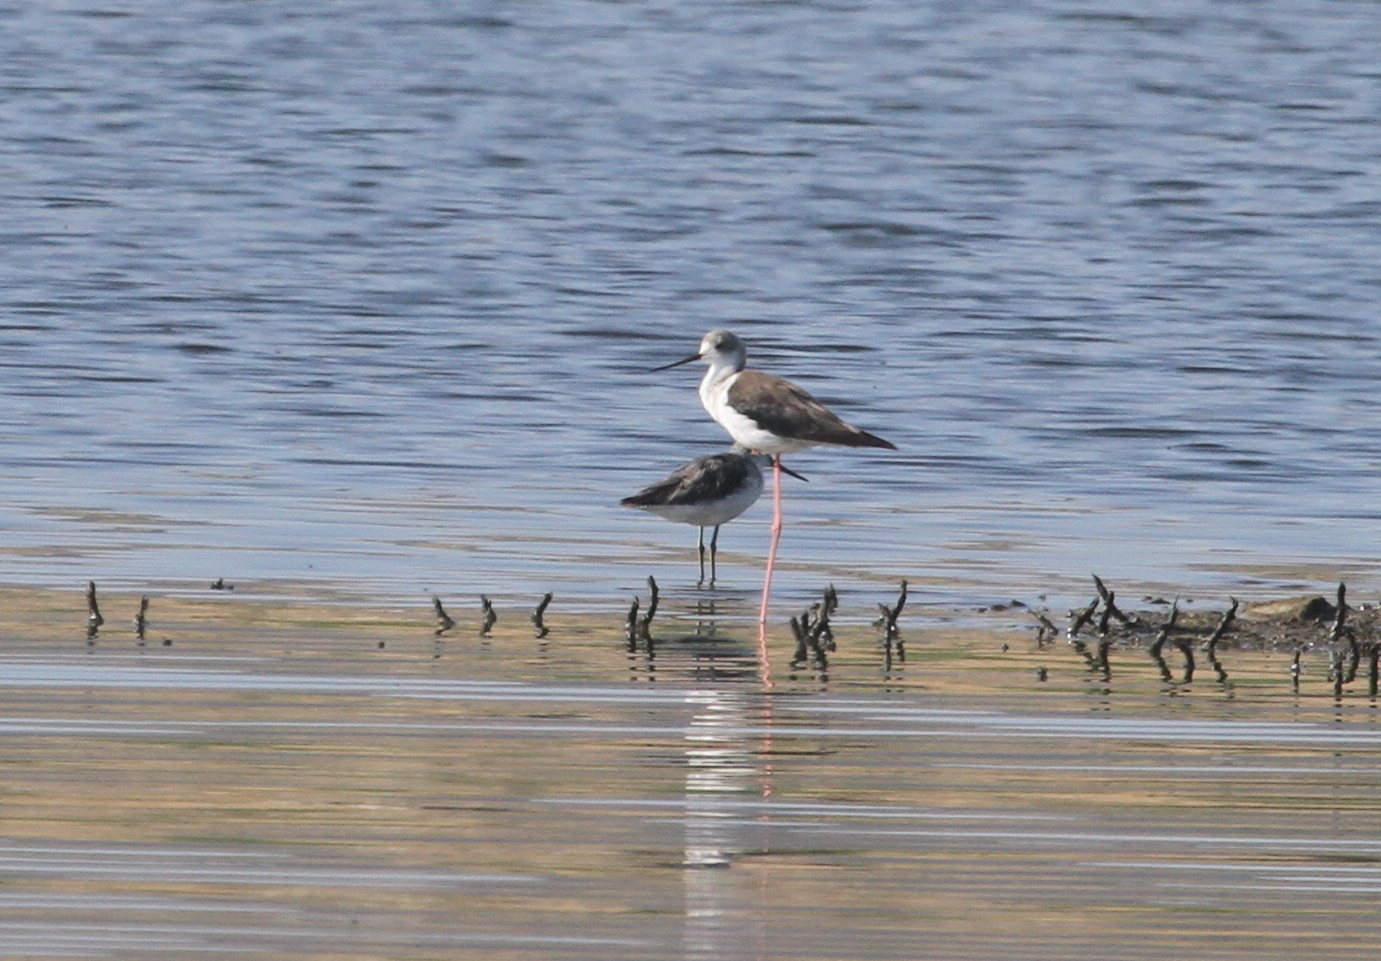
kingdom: Animalia
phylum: Chordata
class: Aves
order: Charadriiformes
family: Recurvirostridae
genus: Himantopus
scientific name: Himantopus himantopus
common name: Black-winged stilt
